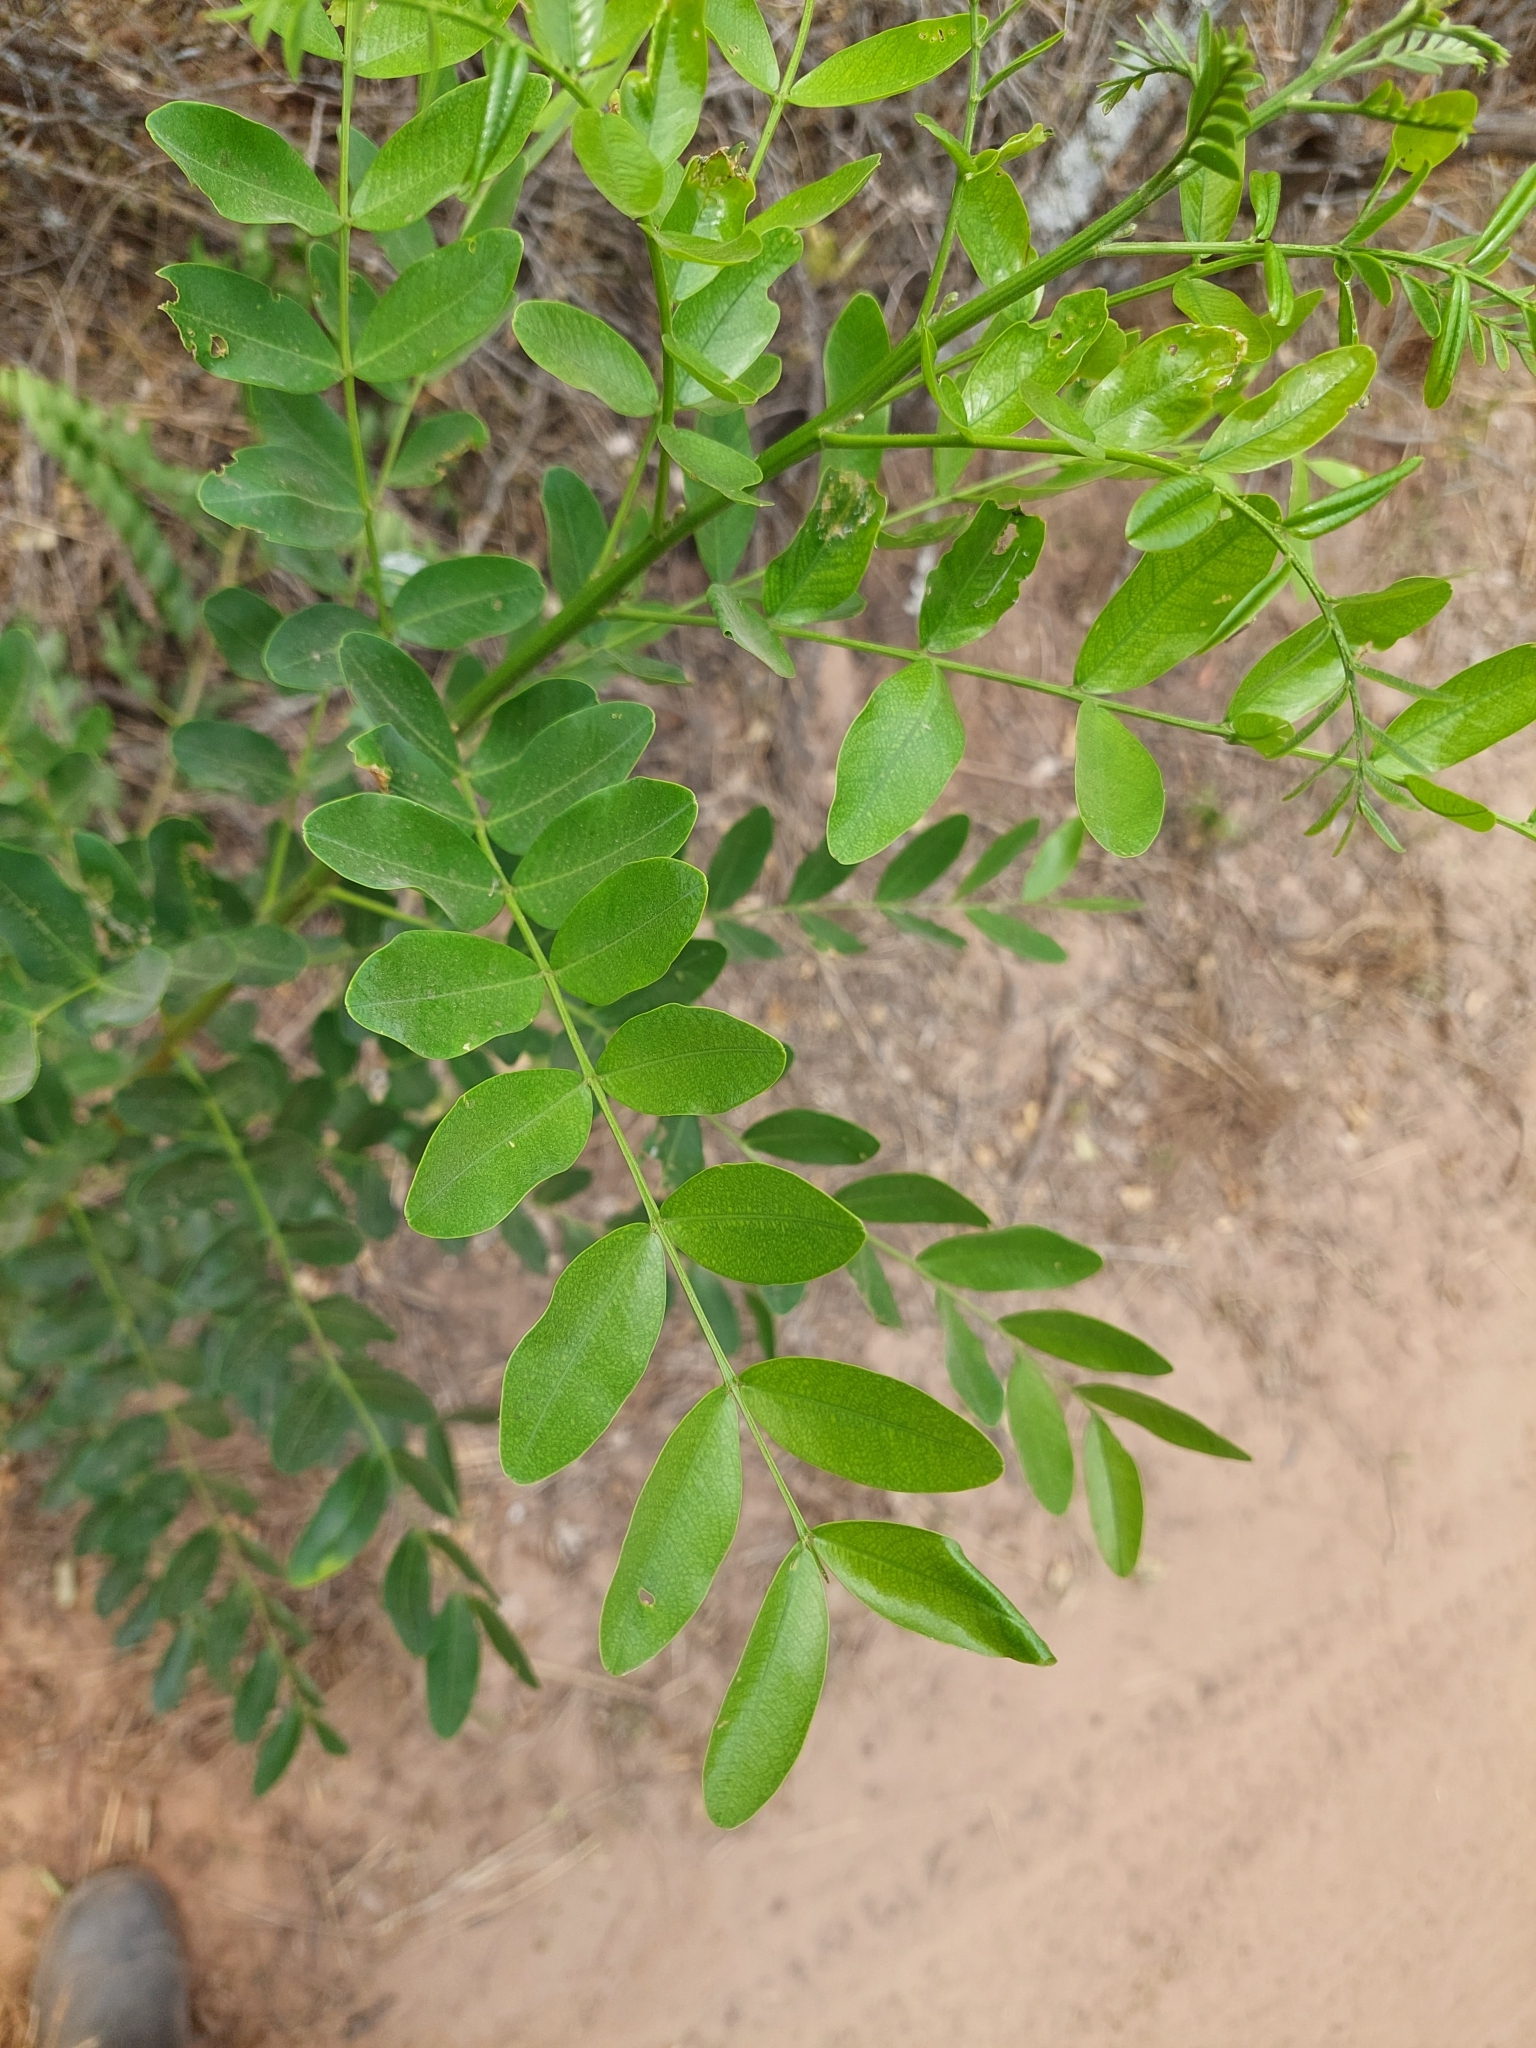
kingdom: Plantae
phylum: Tracheophyta
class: Magnoliopsida
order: Fabales
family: Fabaceae
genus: Pterogyne
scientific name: Pterogyne nitens
